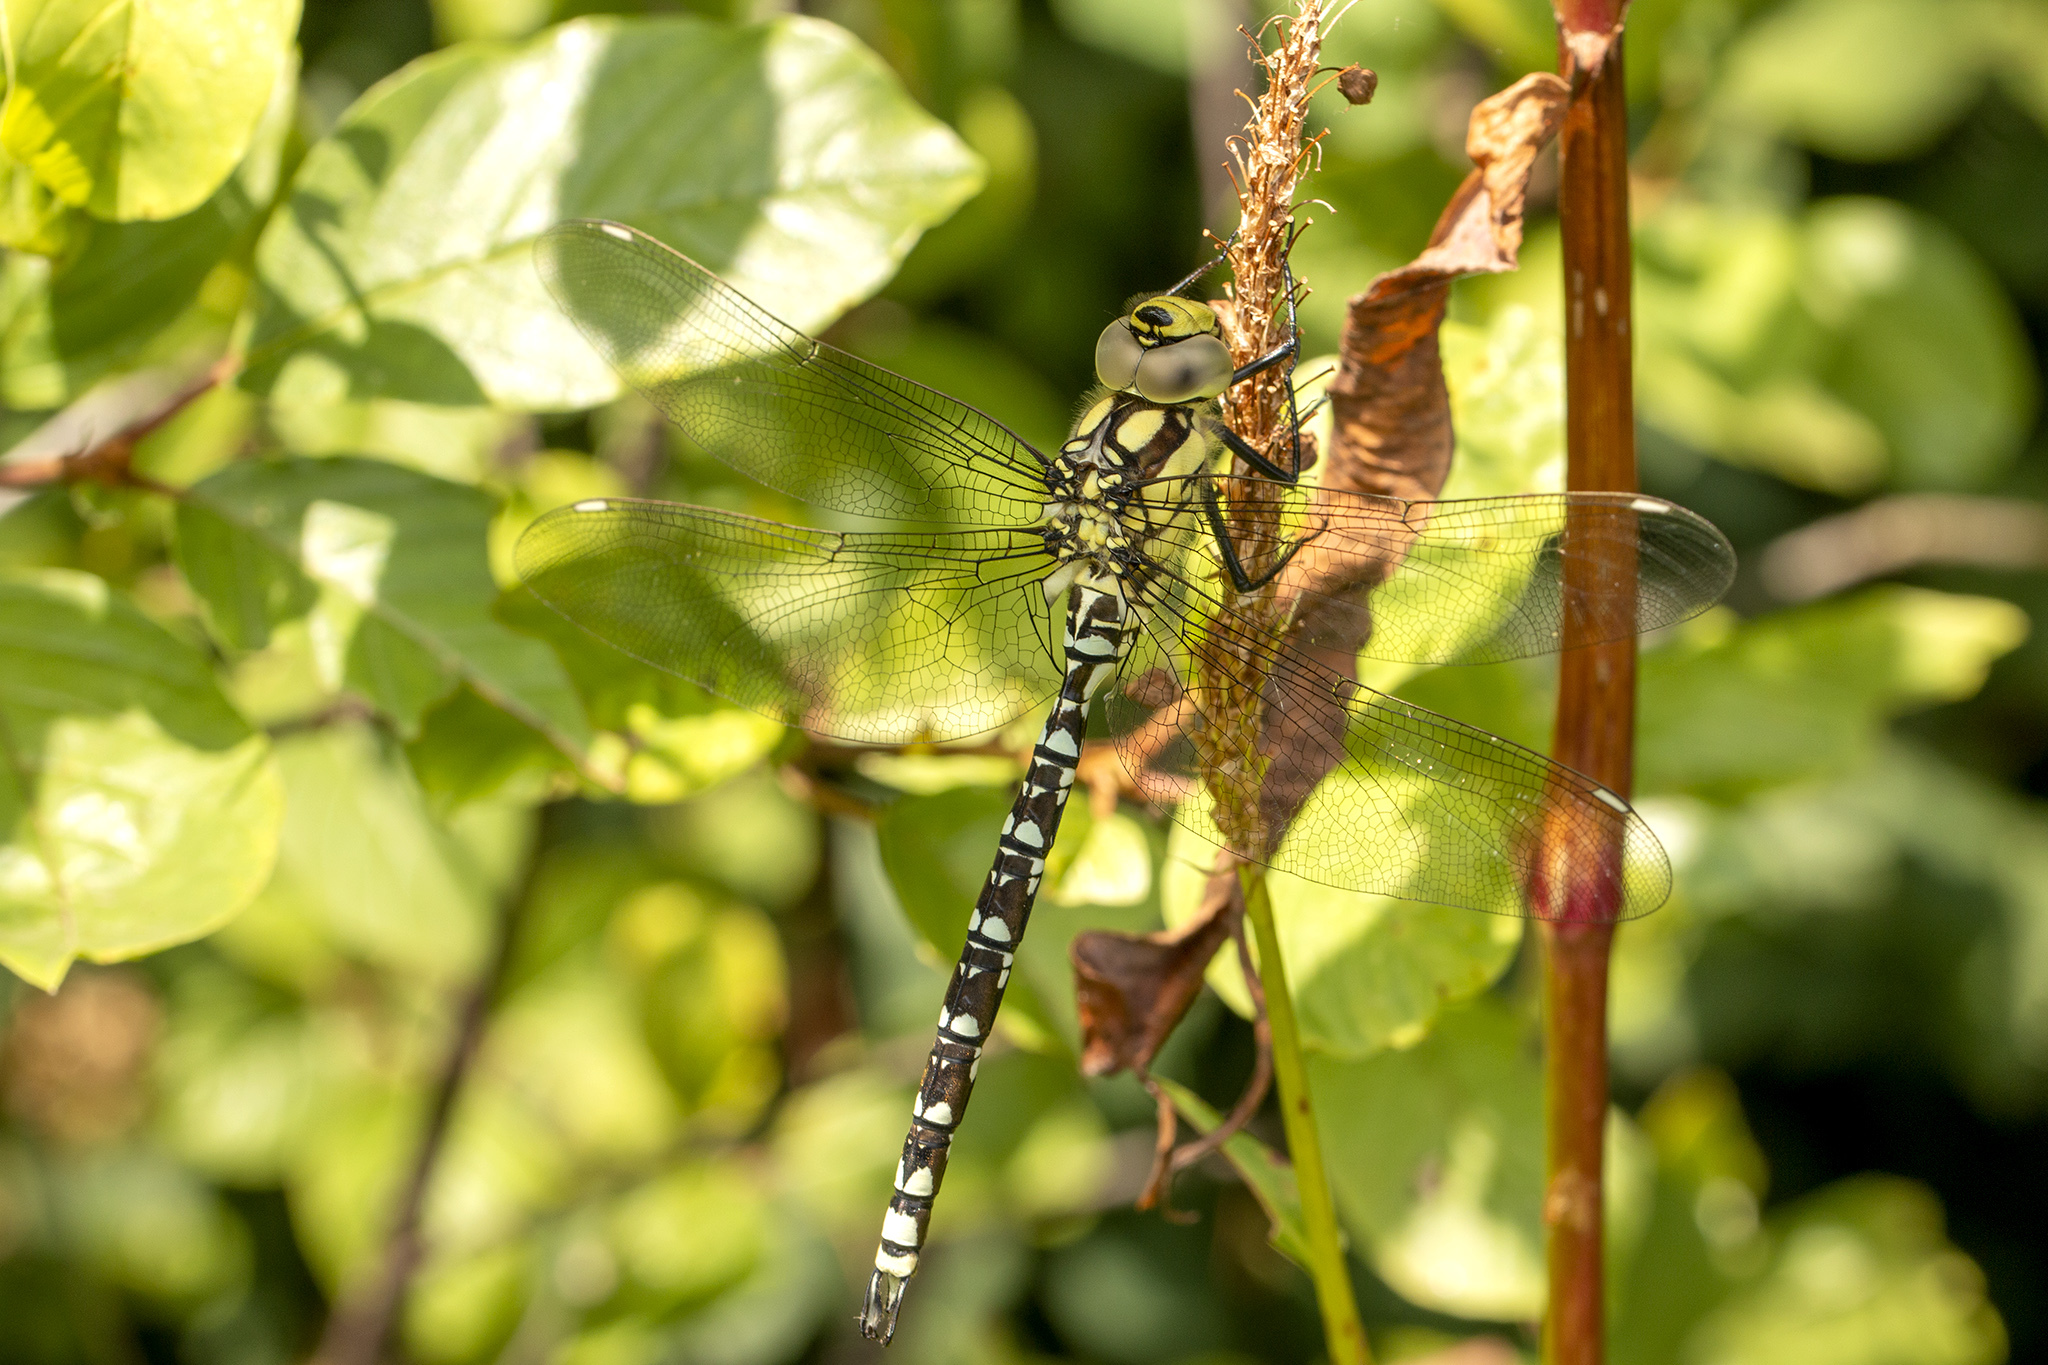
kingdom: Animalia
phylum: Arthropoda
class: Insecta
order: Odonata
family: Aeshnidae
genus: Aeshna
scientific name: Aeshna cyanea
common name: Southern hawker
